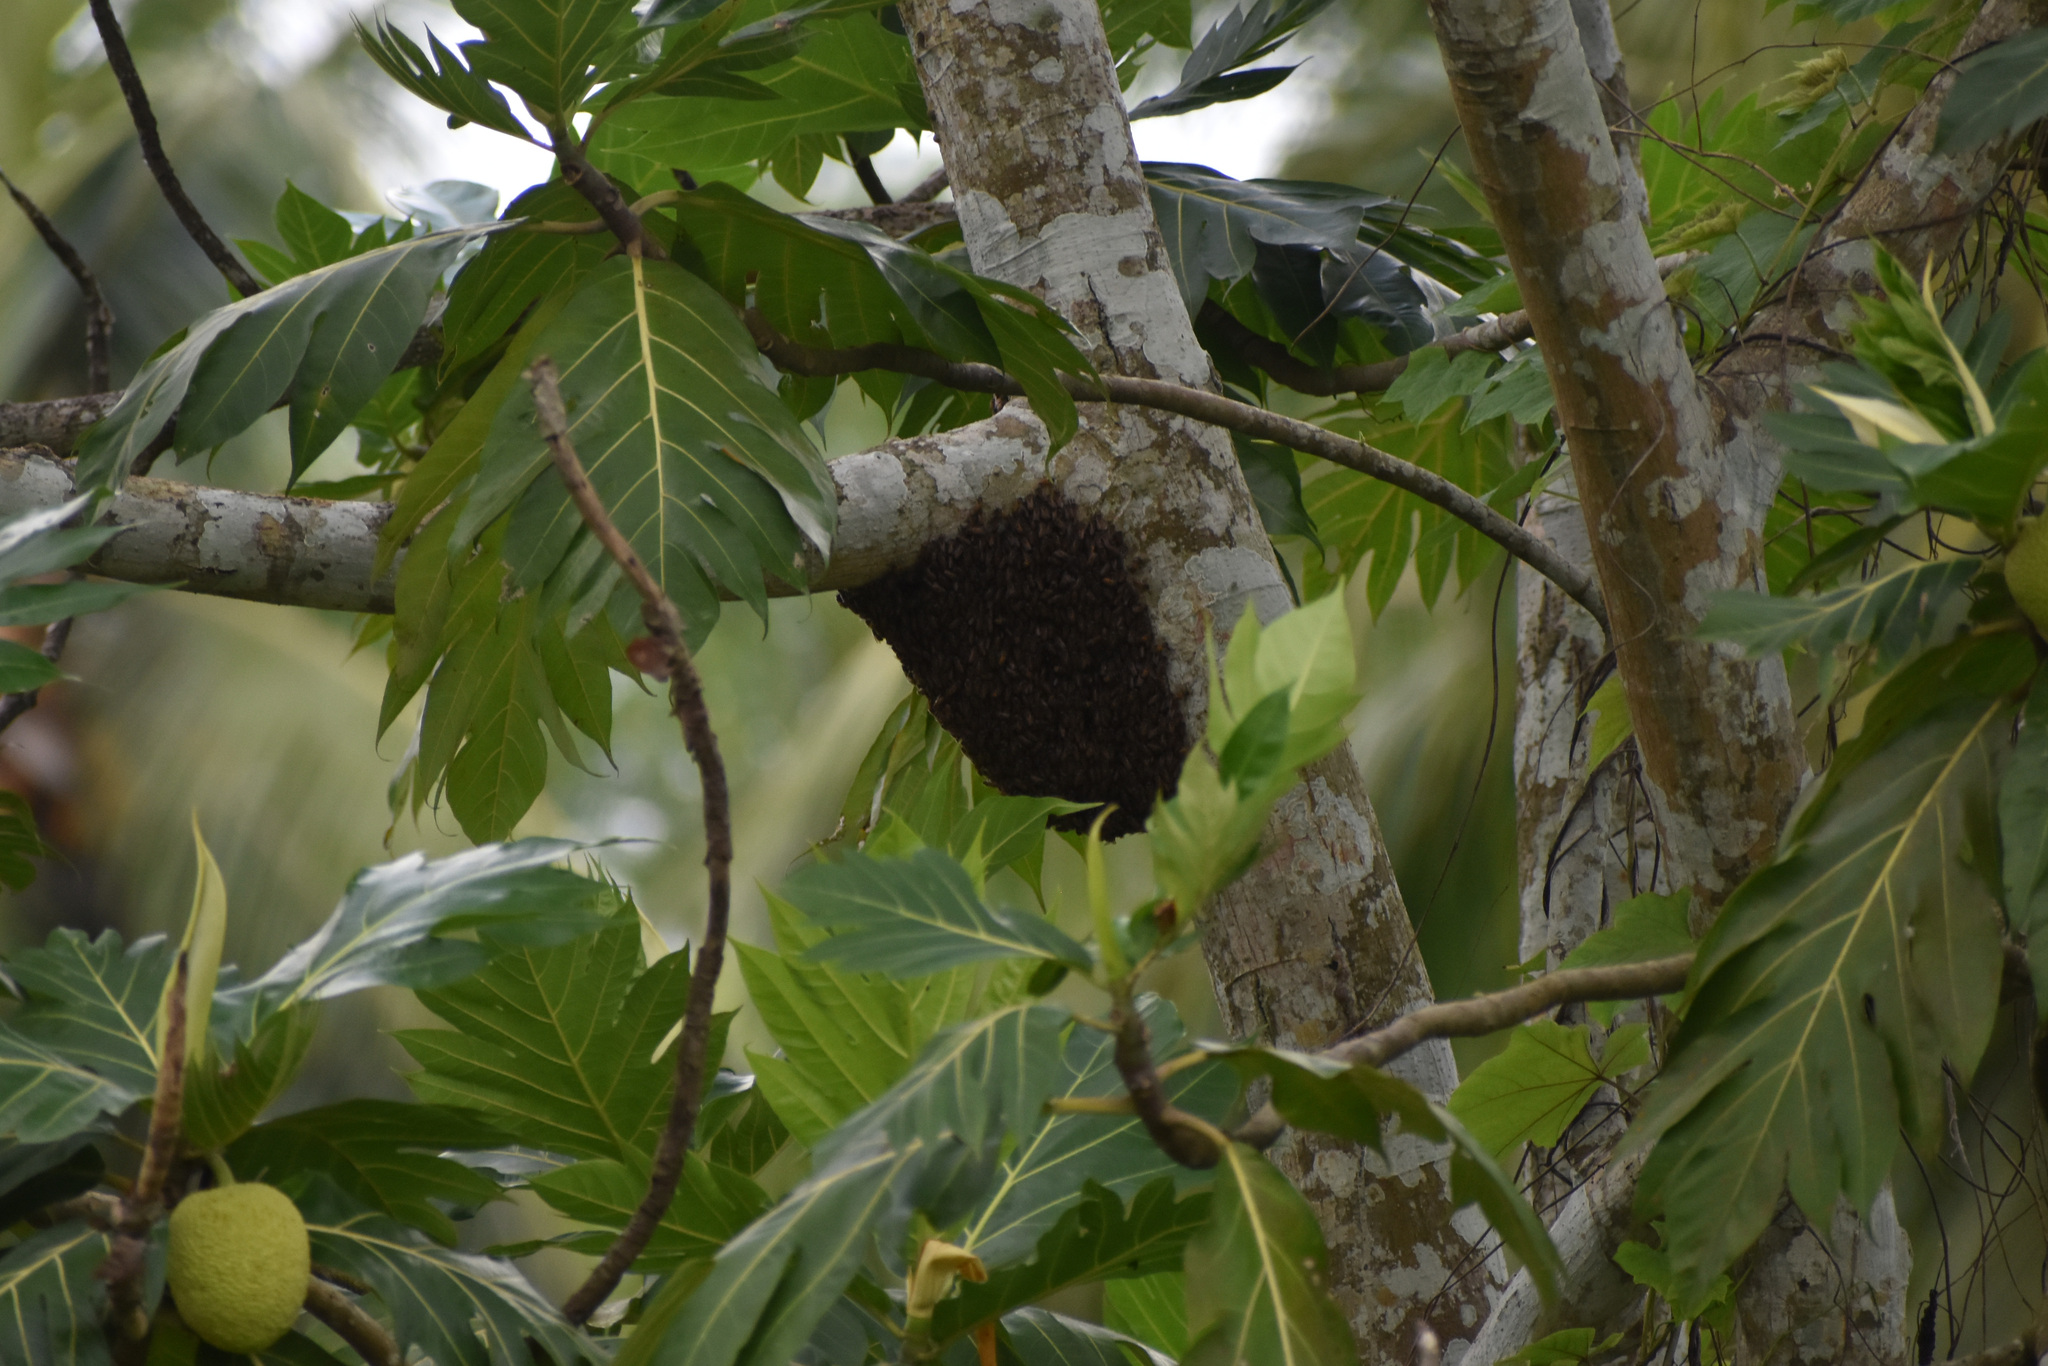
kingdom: Animalia
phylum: Arthropoda
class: Insecta
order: Hymenoptera
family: Apidae
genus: Apis
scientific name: Apis cerana
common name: Honey bee
